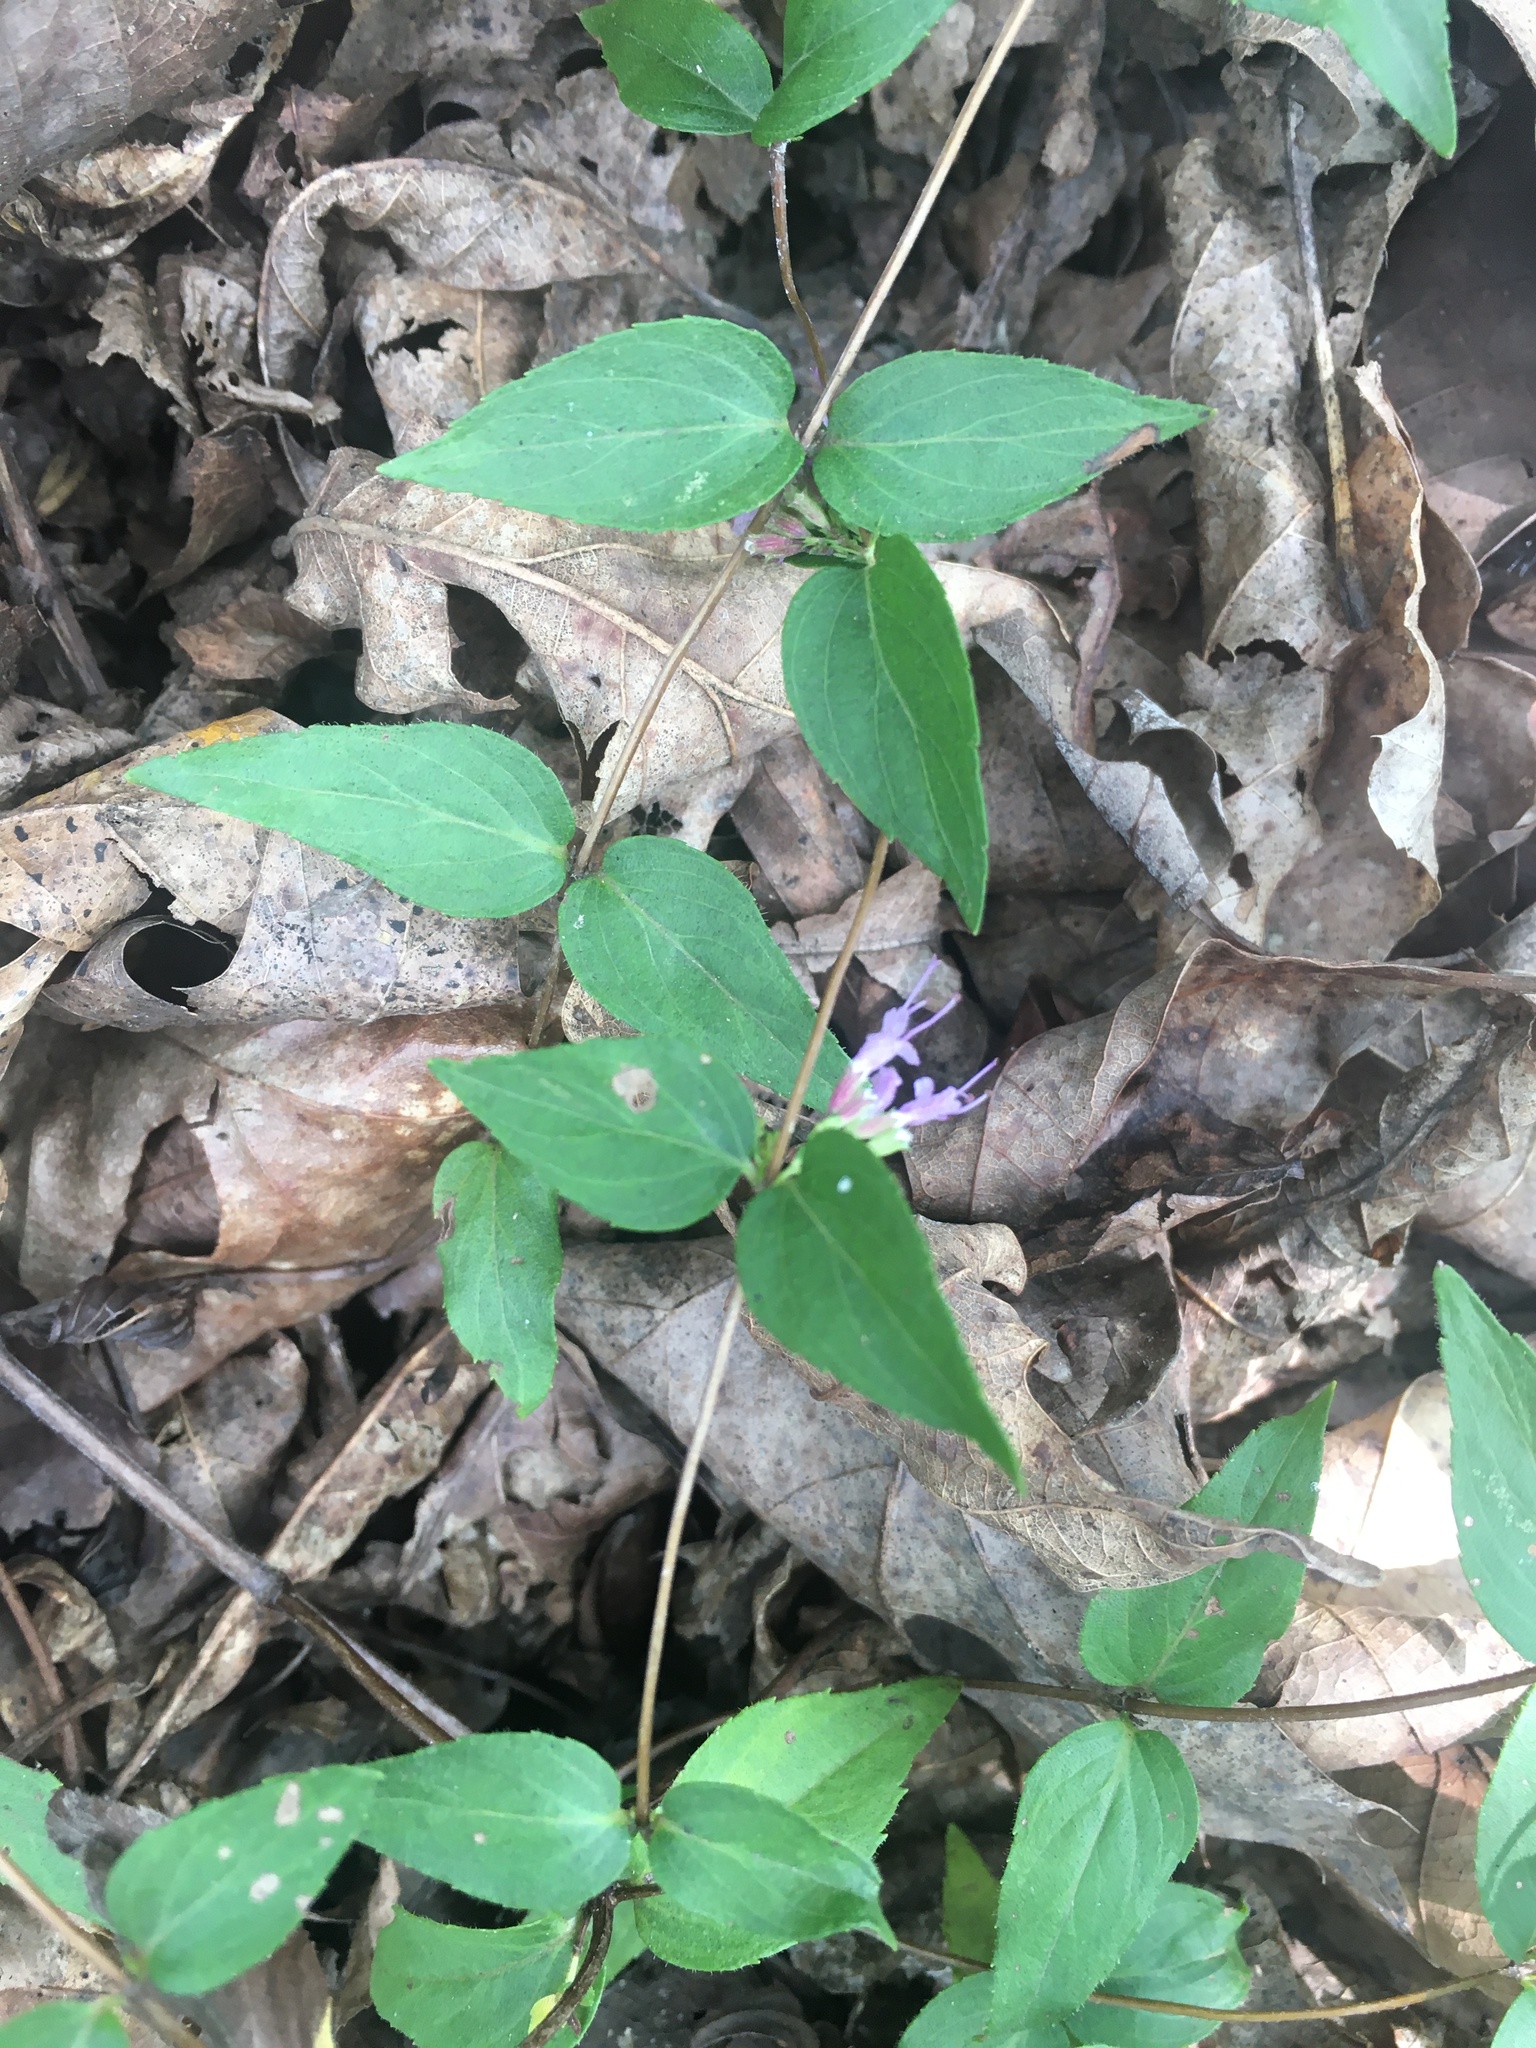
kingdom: Plantae
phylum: Tracheophyta
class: Magnoliopsida
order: Lamiales
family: Lamiaceae
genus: Cunila
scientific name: Cunila origanoides
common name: American dittany
